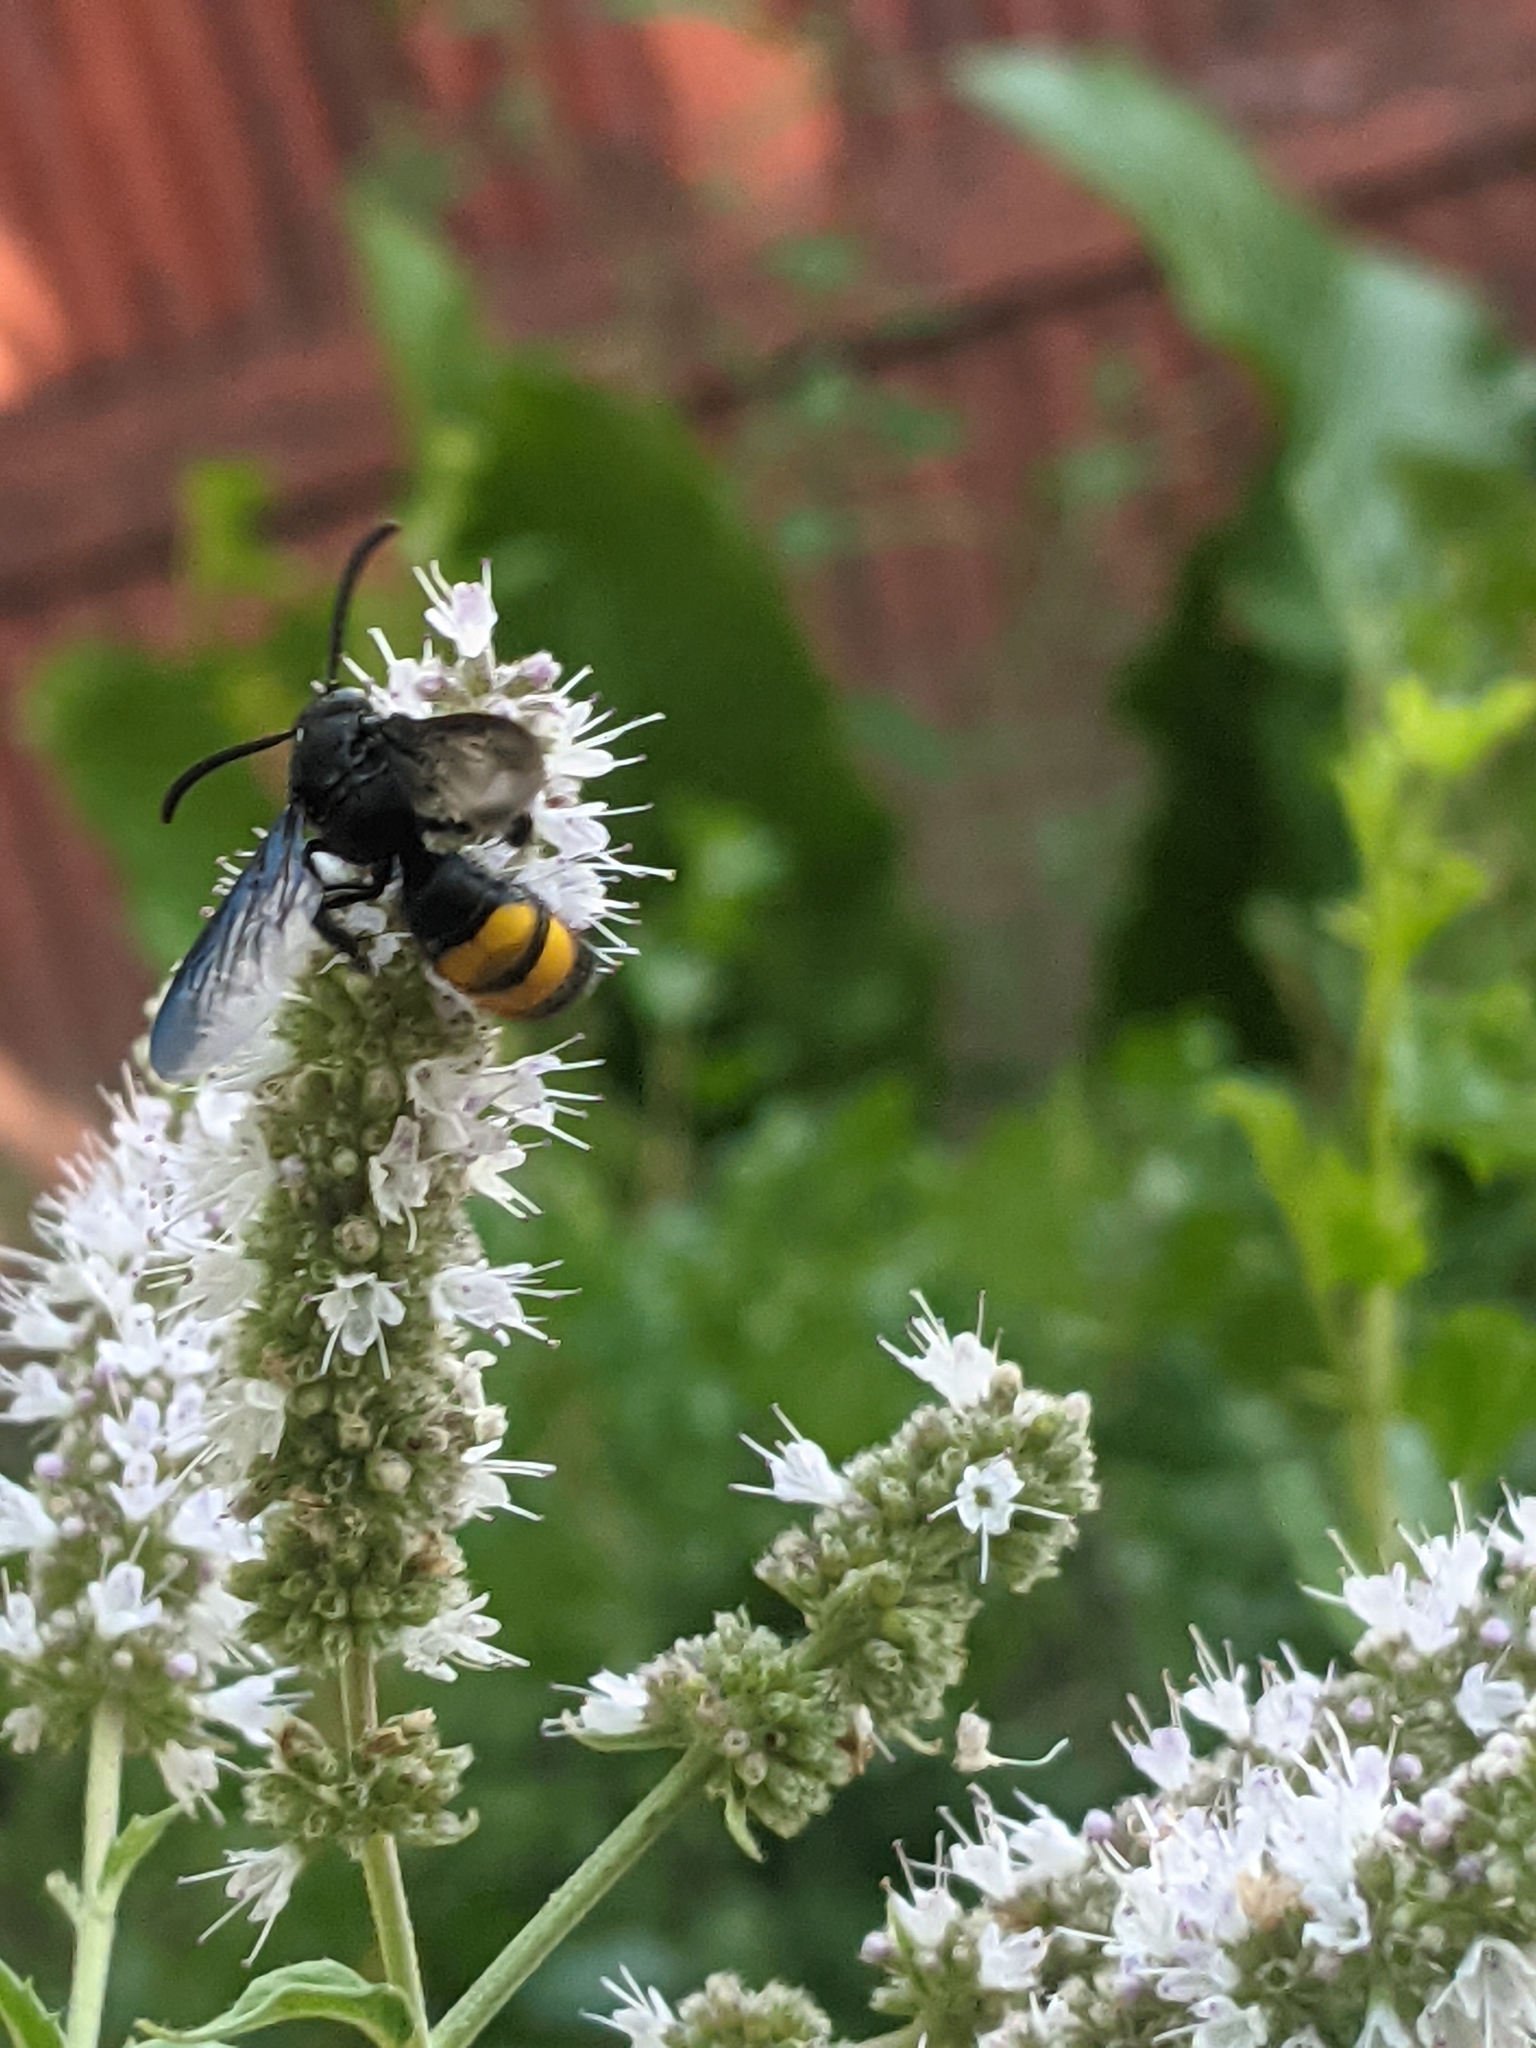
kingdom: Animalia
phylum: Arthropoda
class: Insecta
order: Hymenoptera
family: Scoliidae
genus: Scolia
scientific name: Scolia hirta
